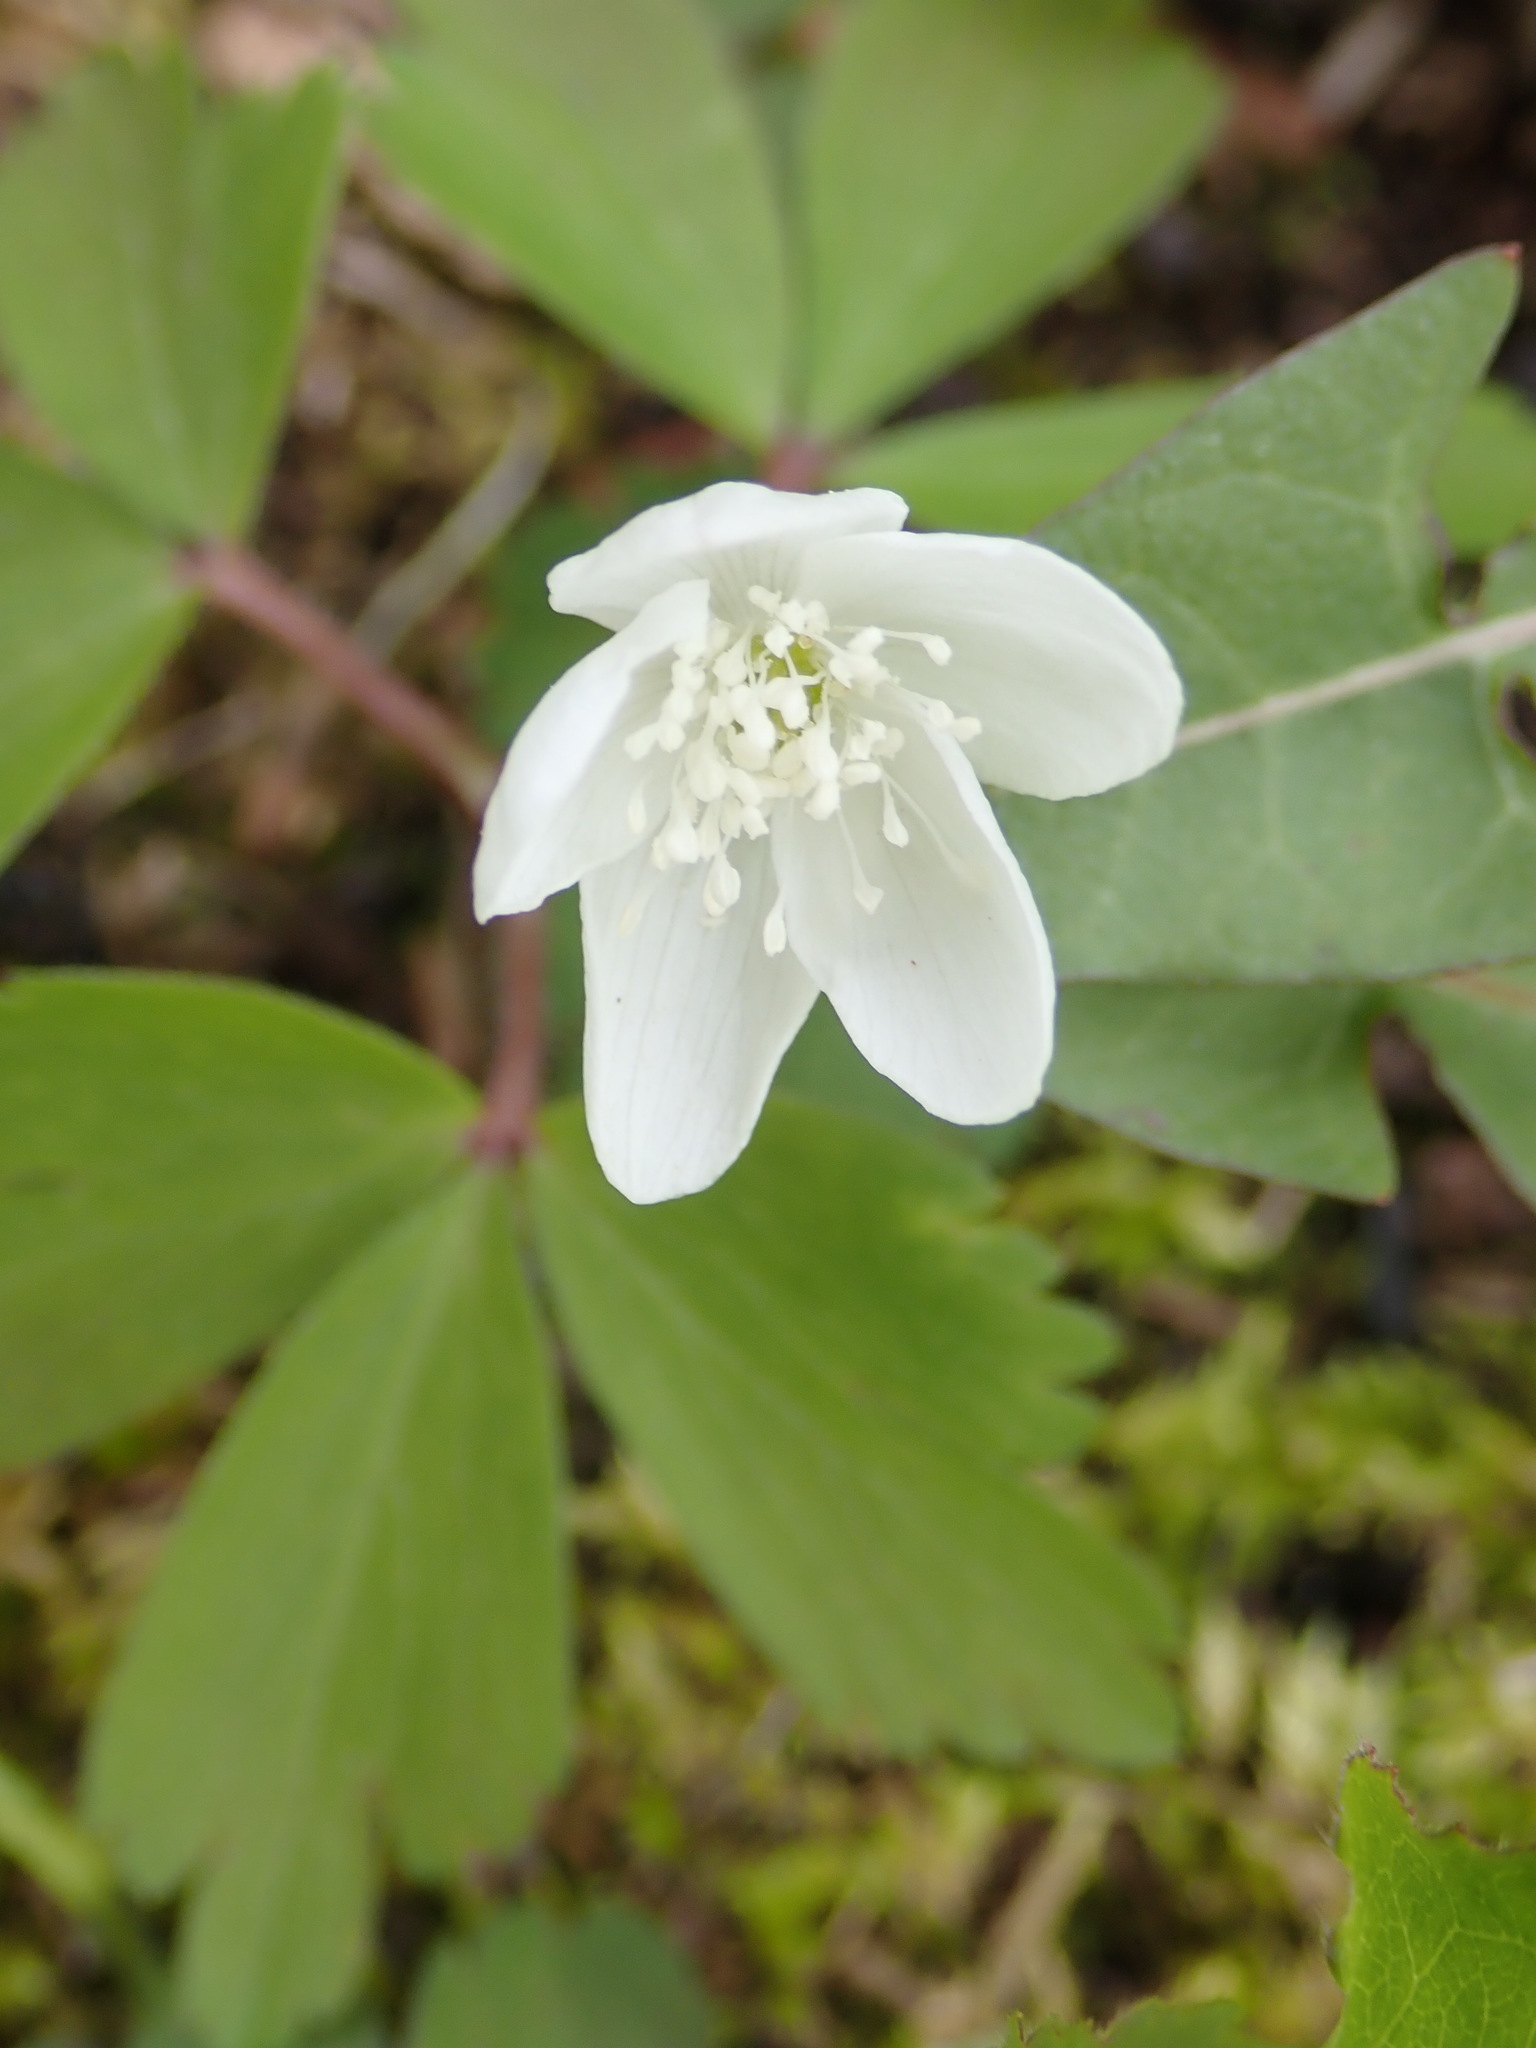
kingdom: Plantae
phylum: Tracheophyta
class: Magnoliopsida
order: Ranunculales
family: Ranunculaceae
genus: Anemone
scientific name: Anemone quinquefolia
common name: Wood anemone
